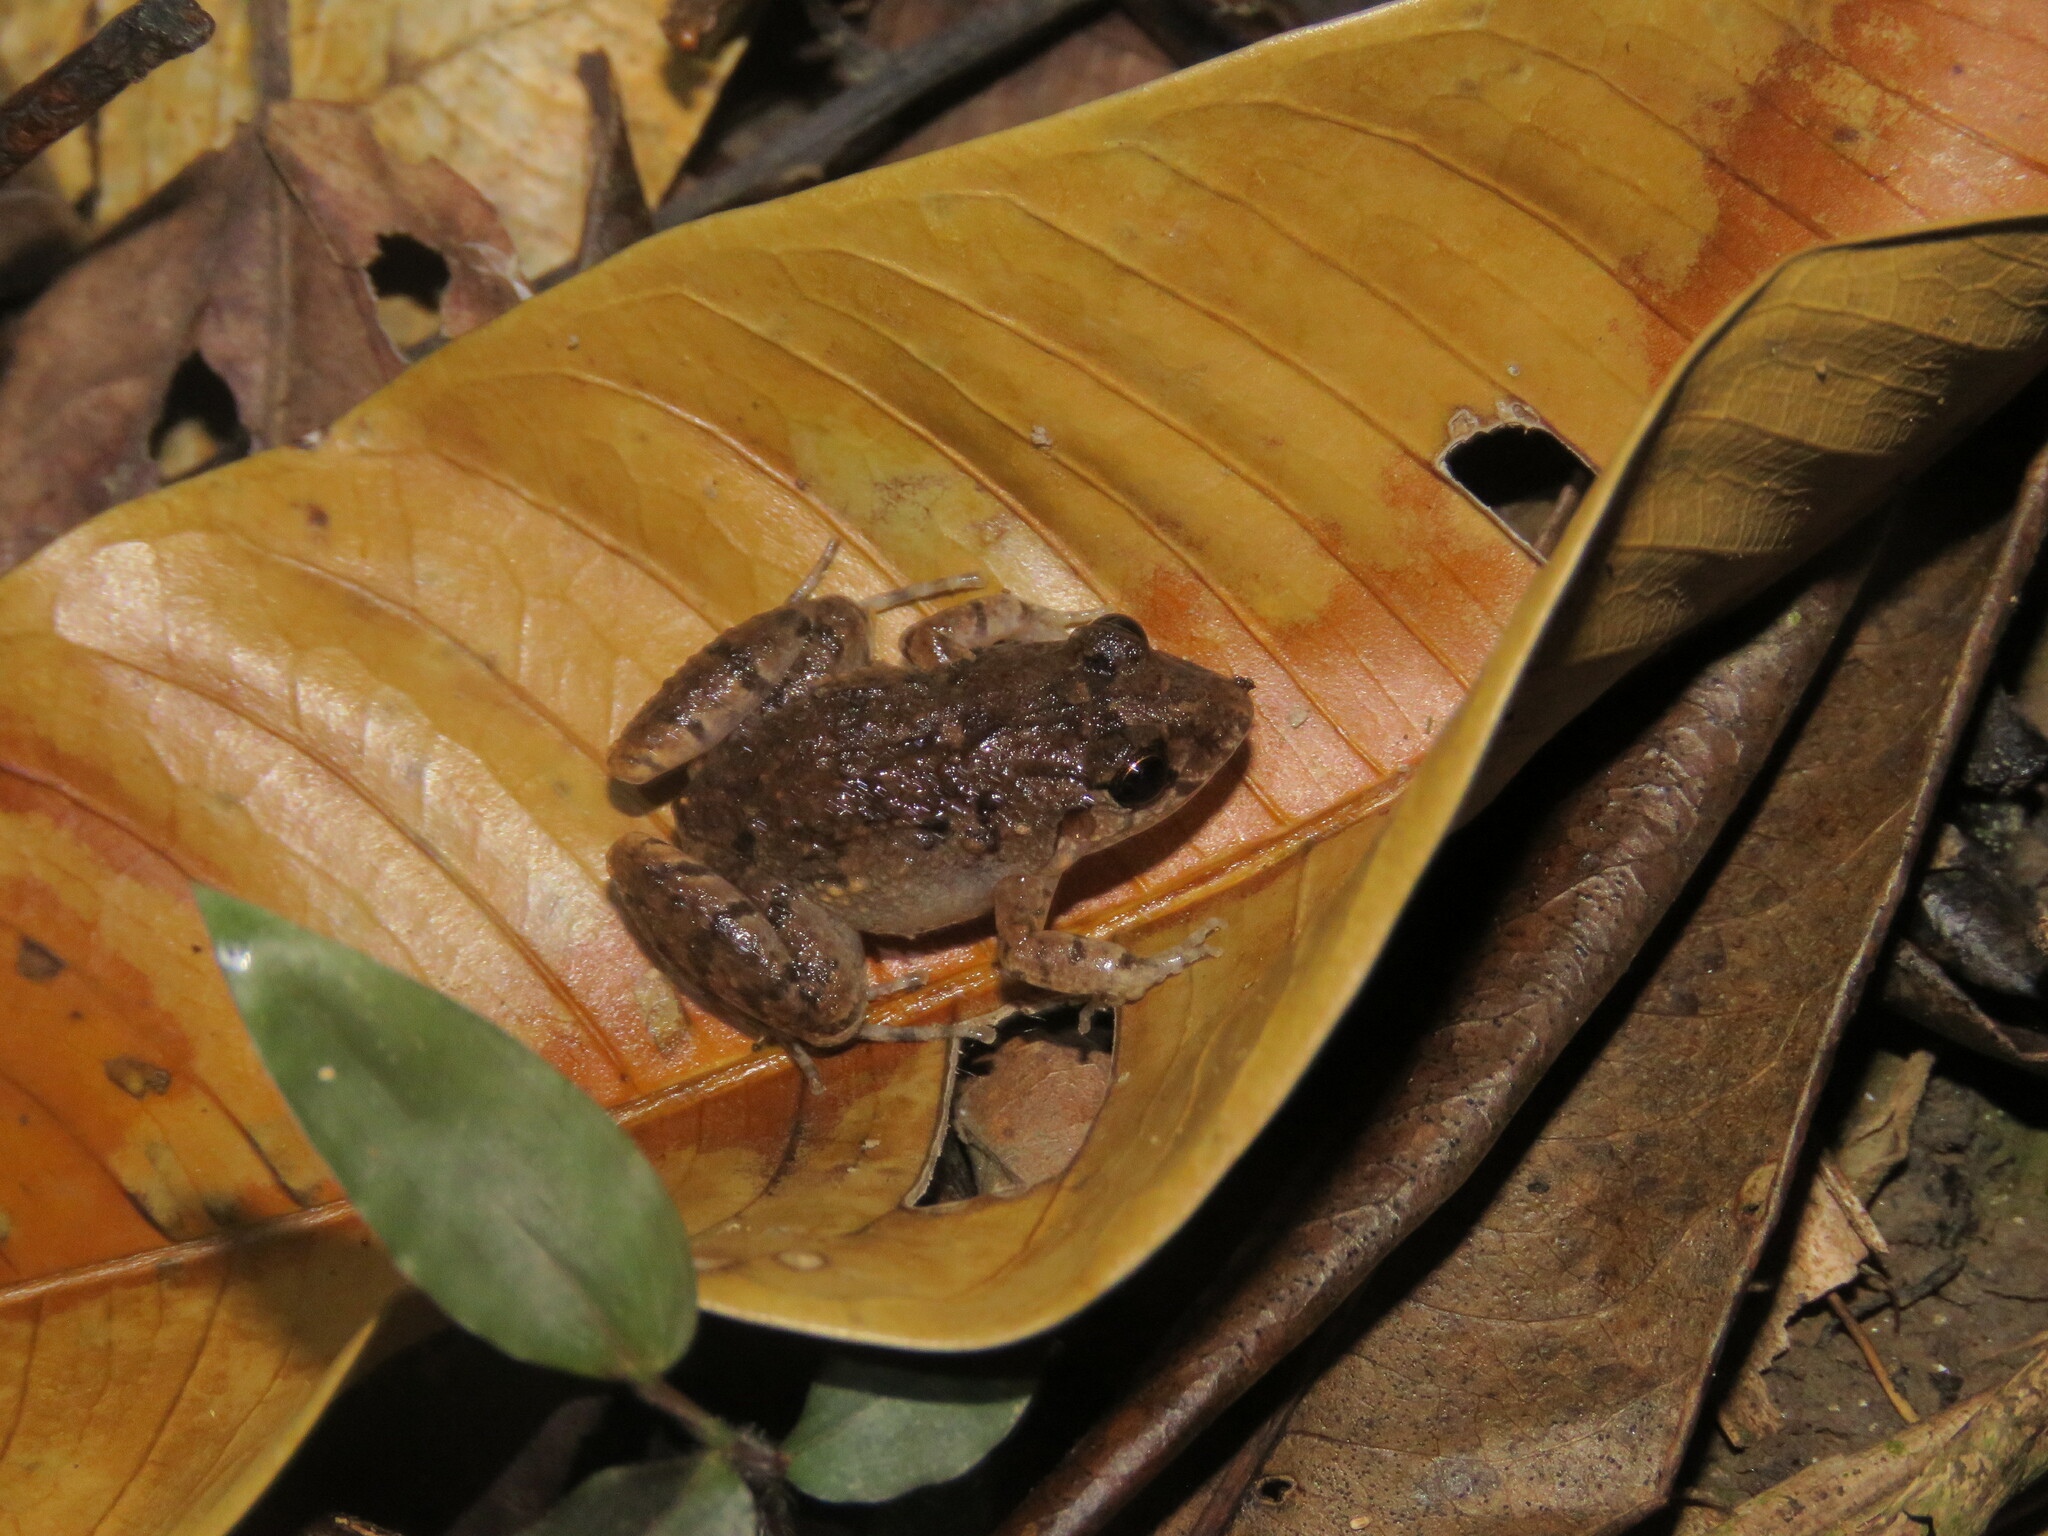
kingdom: Animalia
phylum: Chordata
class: Amphibia
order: Anura
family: Leptodactylidae
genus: Adenomera
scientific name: Adenomera hylaedactyla
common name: Napo tropical bullfrog
